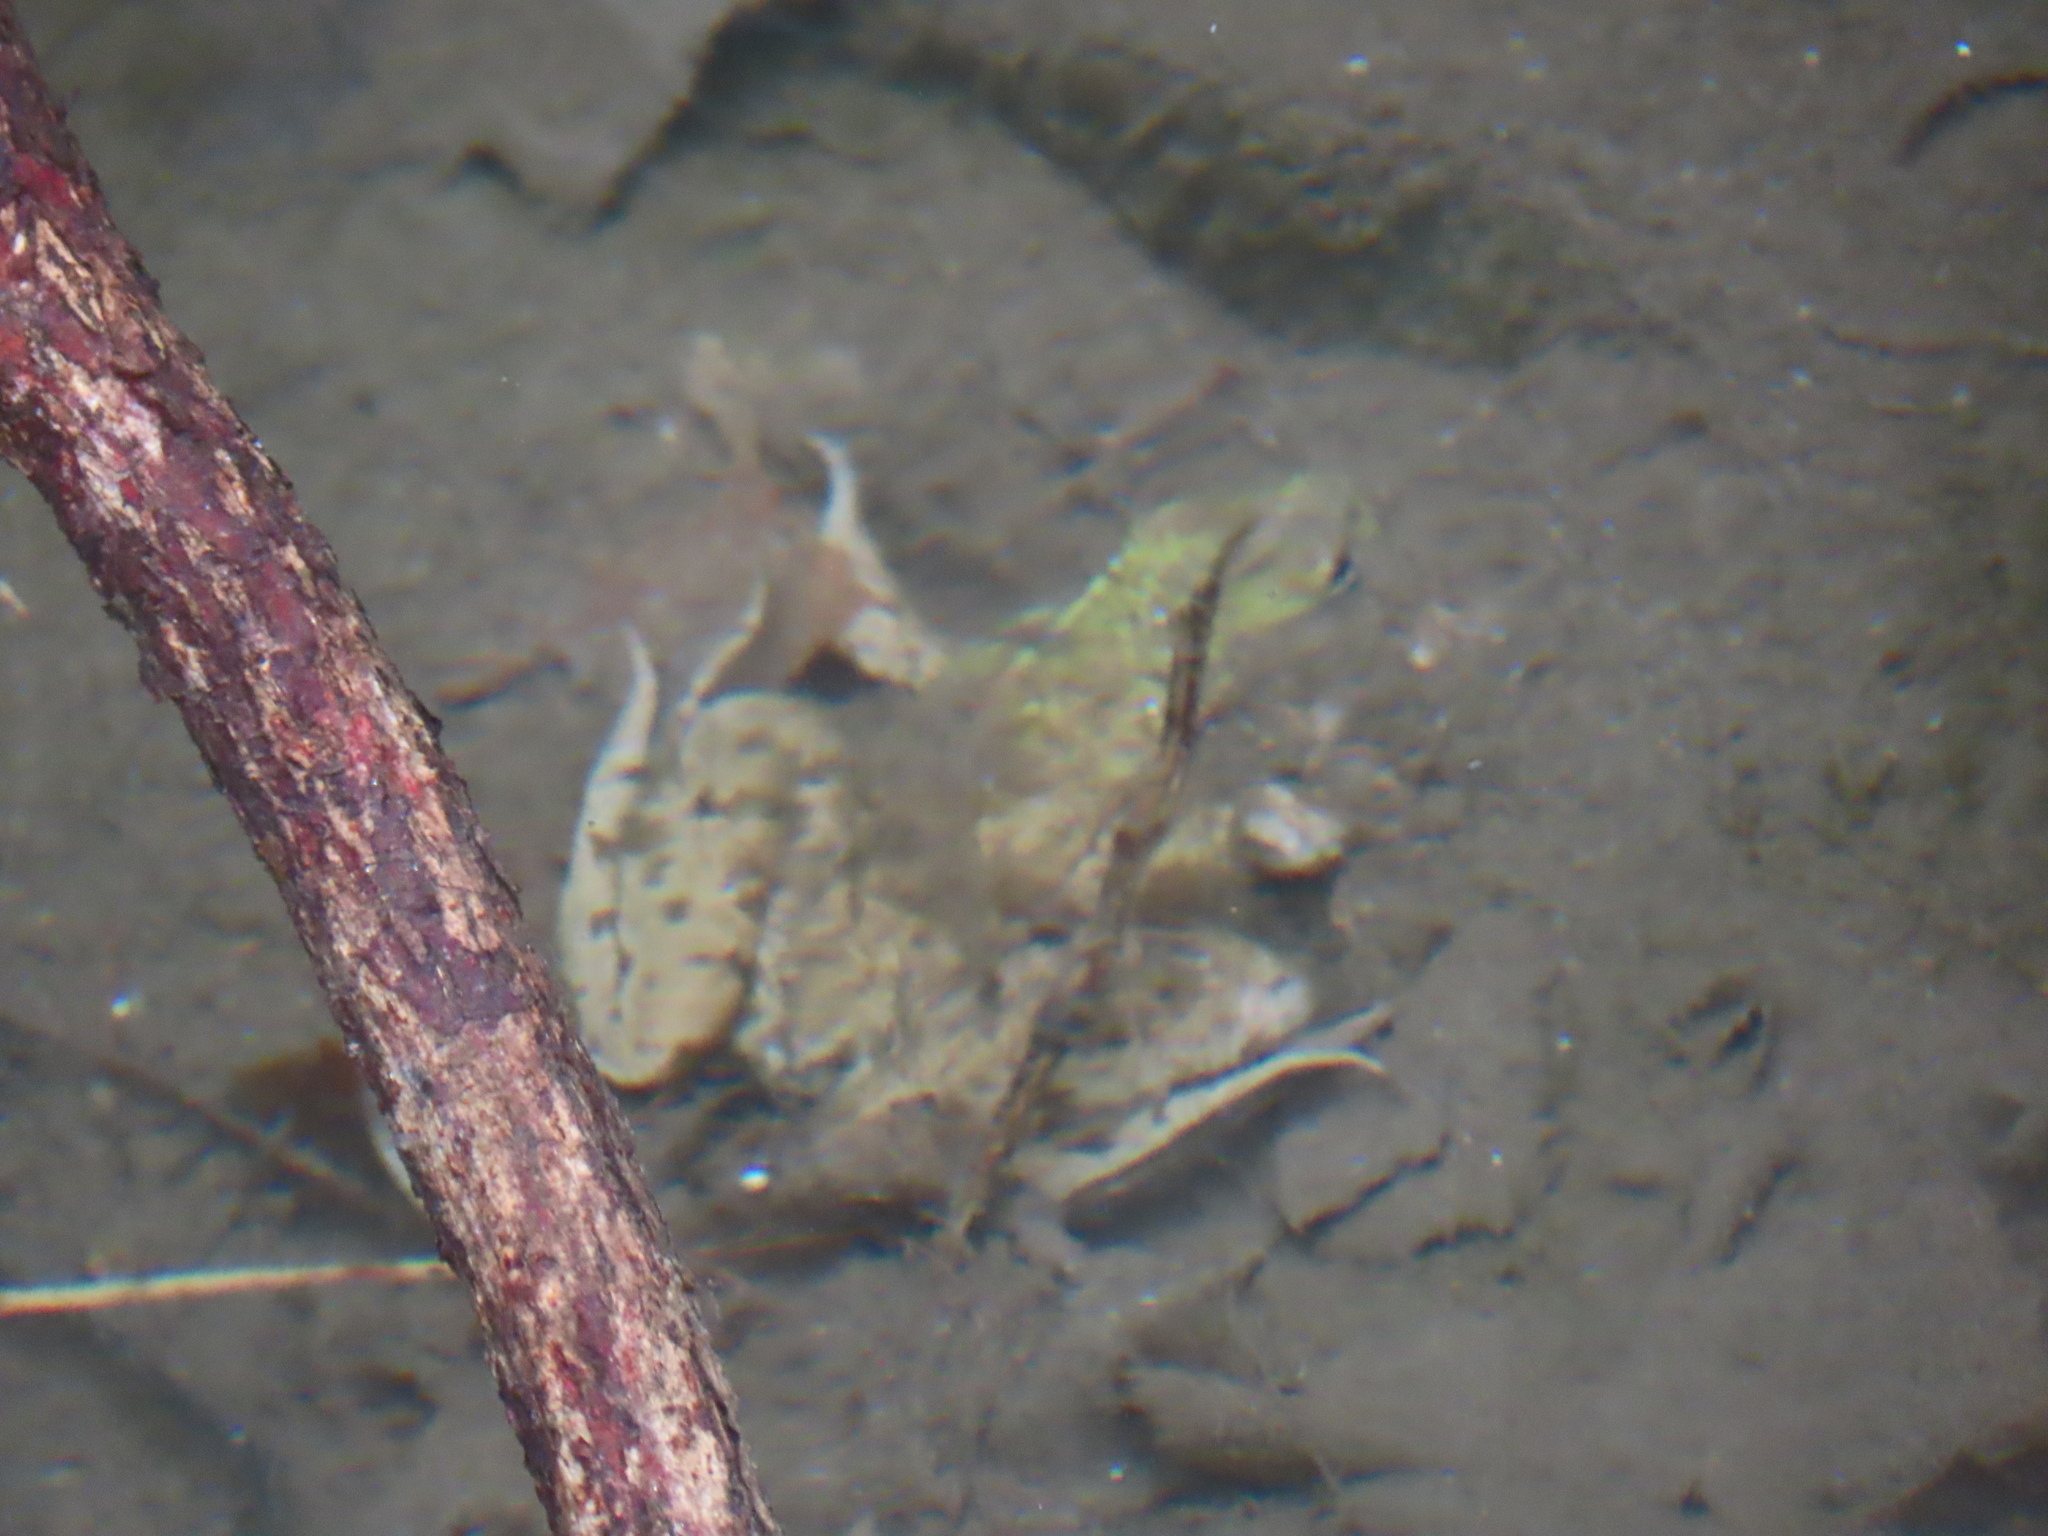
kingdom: Animalia
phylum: Chordata
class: Amphibia
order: Anura
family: Ranidae
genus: Lithobates
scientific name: Lithobates clamitans
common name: Green frog
